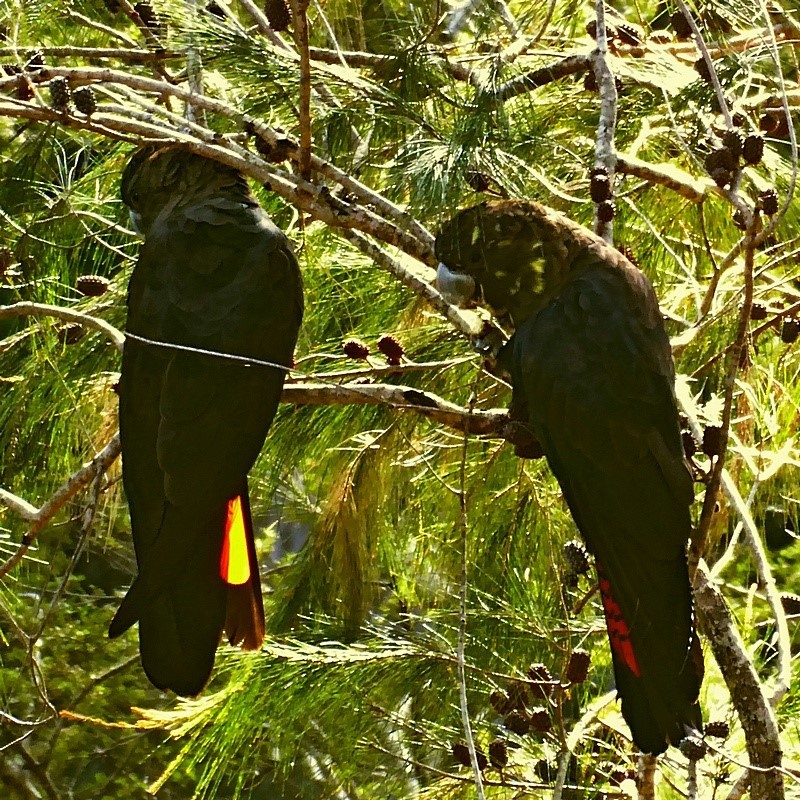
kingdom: Animalia
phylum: Chordata
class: Aves
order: Psittaciformes
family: Psittacidae
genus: Calyptorhynchus
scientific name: Calyptorhynchus lathami
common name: Glossy black cockatoo
